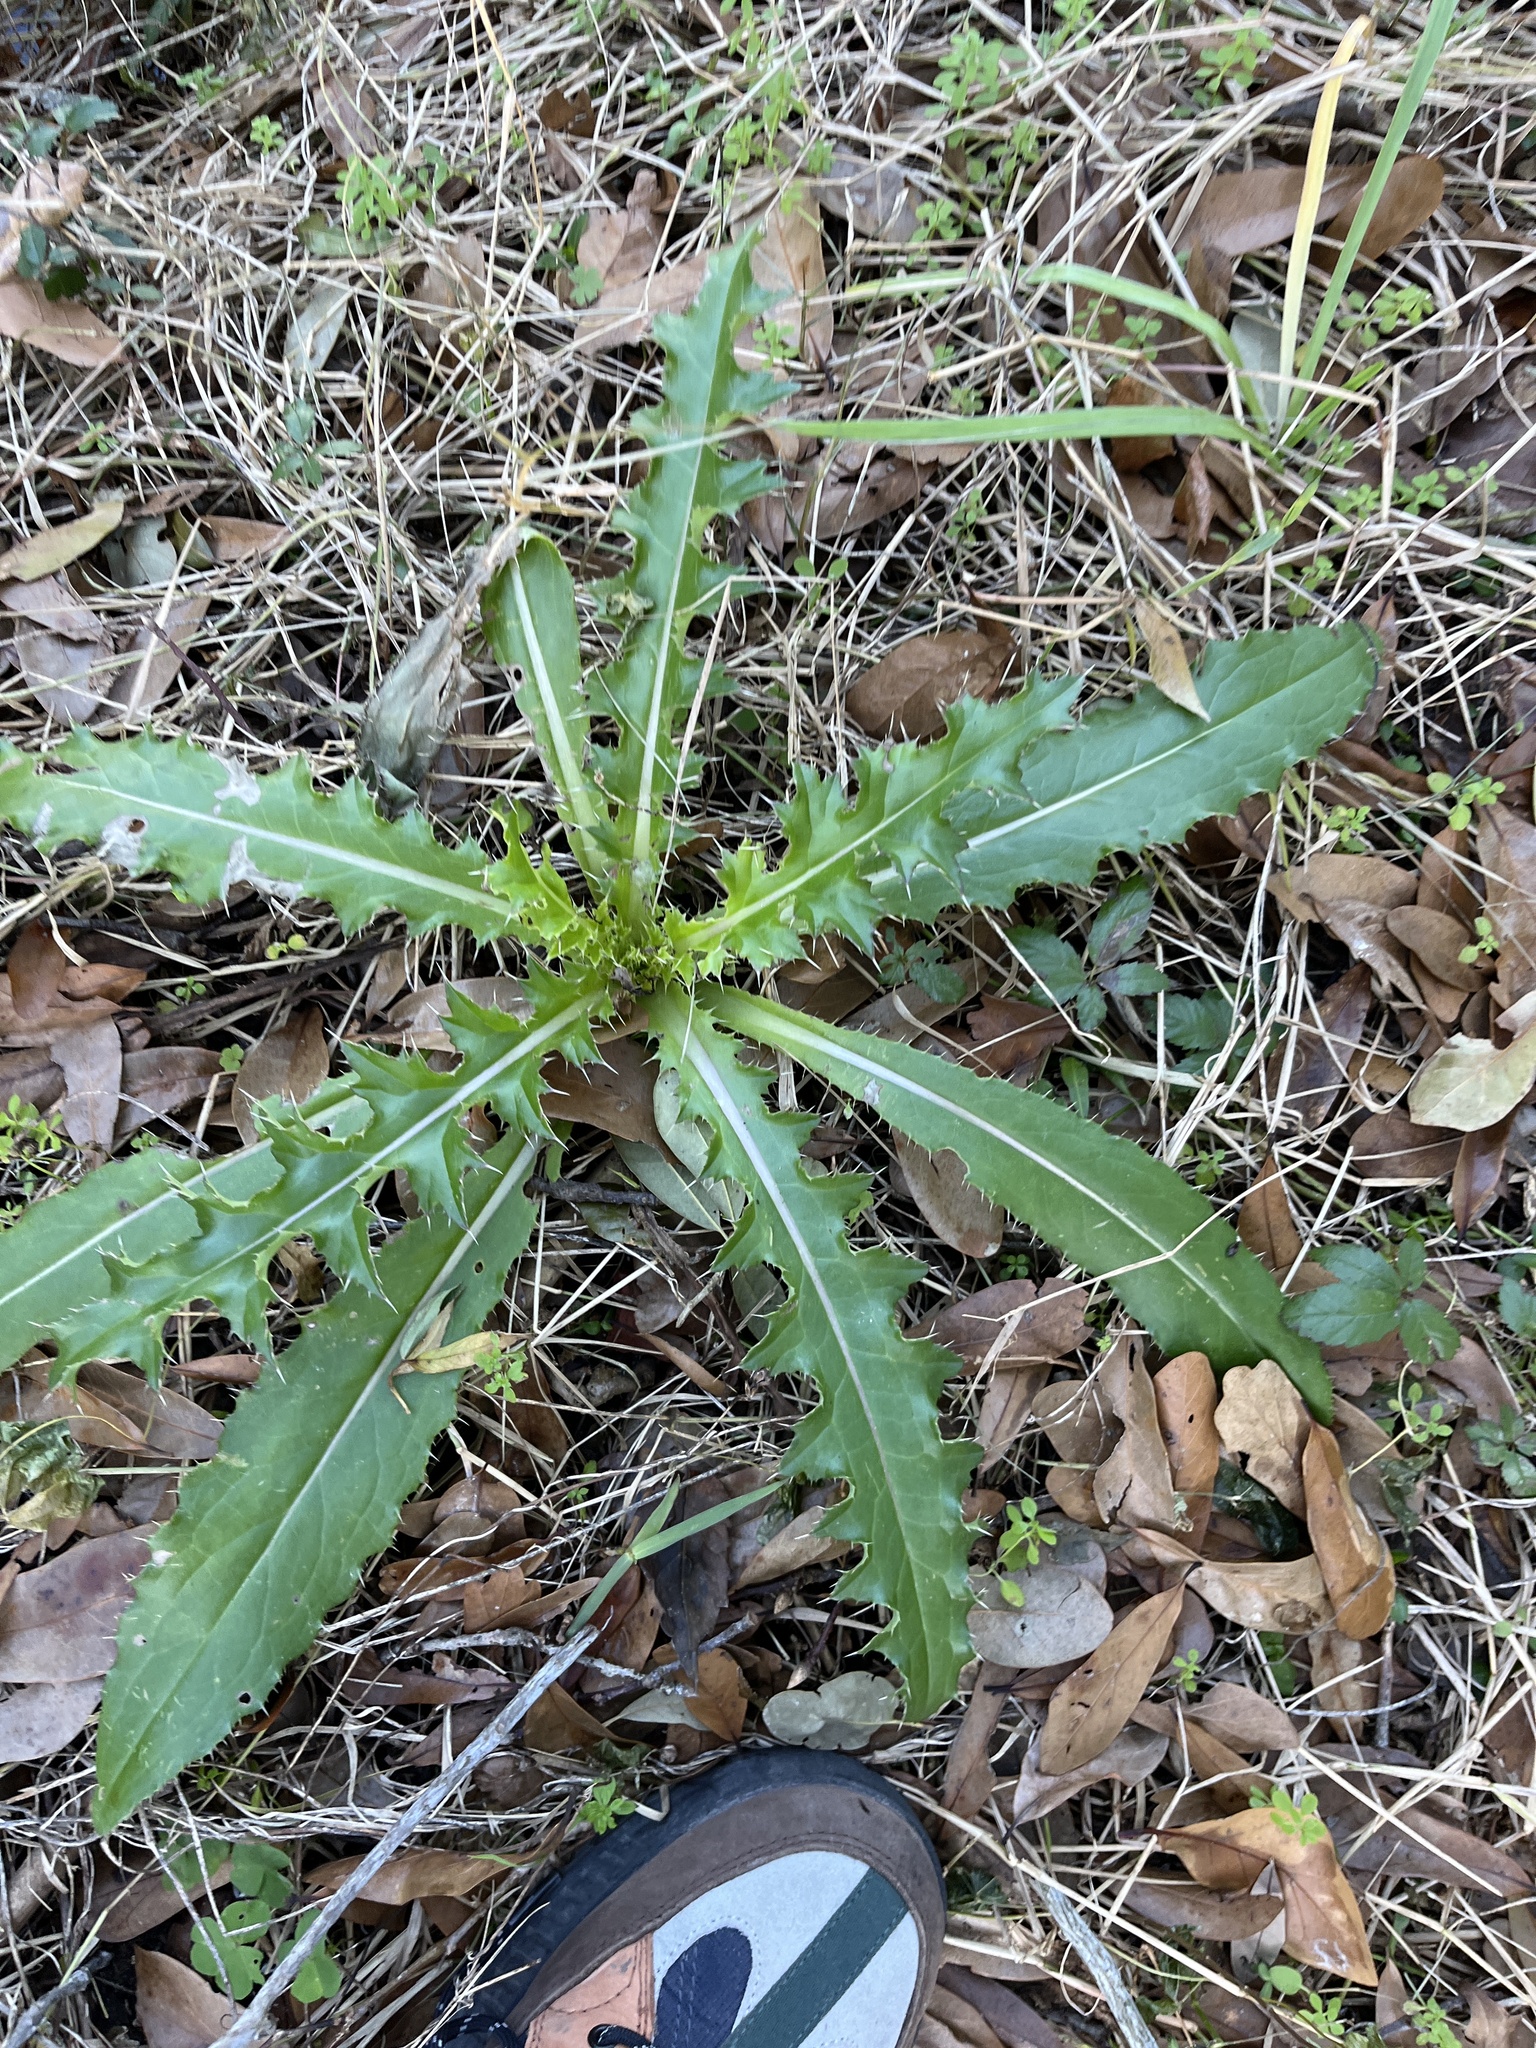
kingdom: Plantae
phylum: Tracheophyta
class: Magnoliopsida
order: Asterales
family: Asteraceae
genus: Cirsium
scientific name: Cirsium horridulum
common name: Bristly thistle
